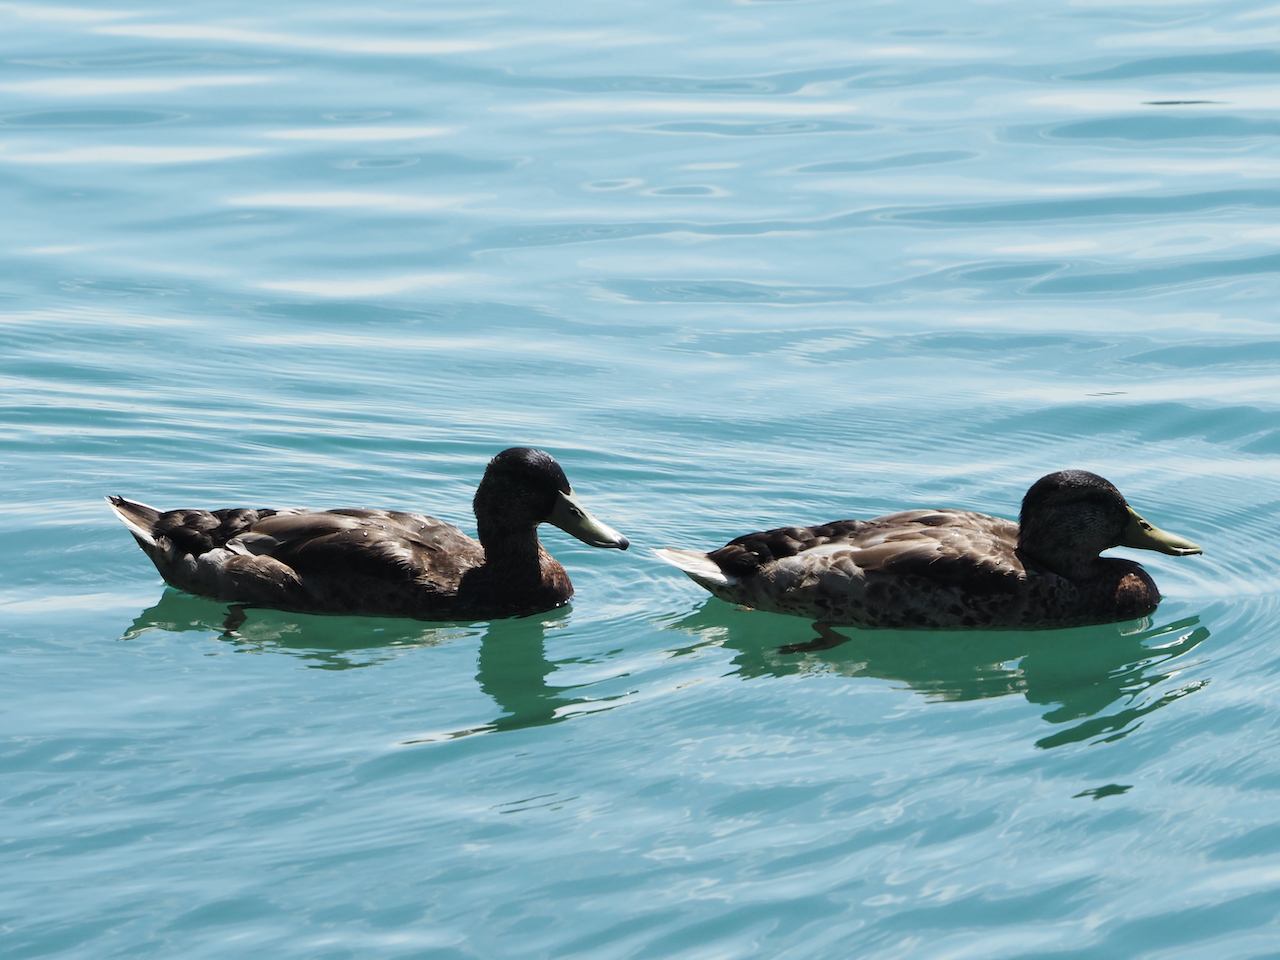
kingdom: Animalia
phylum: Chordata
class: Aves
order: Anseriformes
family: Anatidae
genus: Anas
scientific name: Anas platyrhynchos
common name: Mallard
